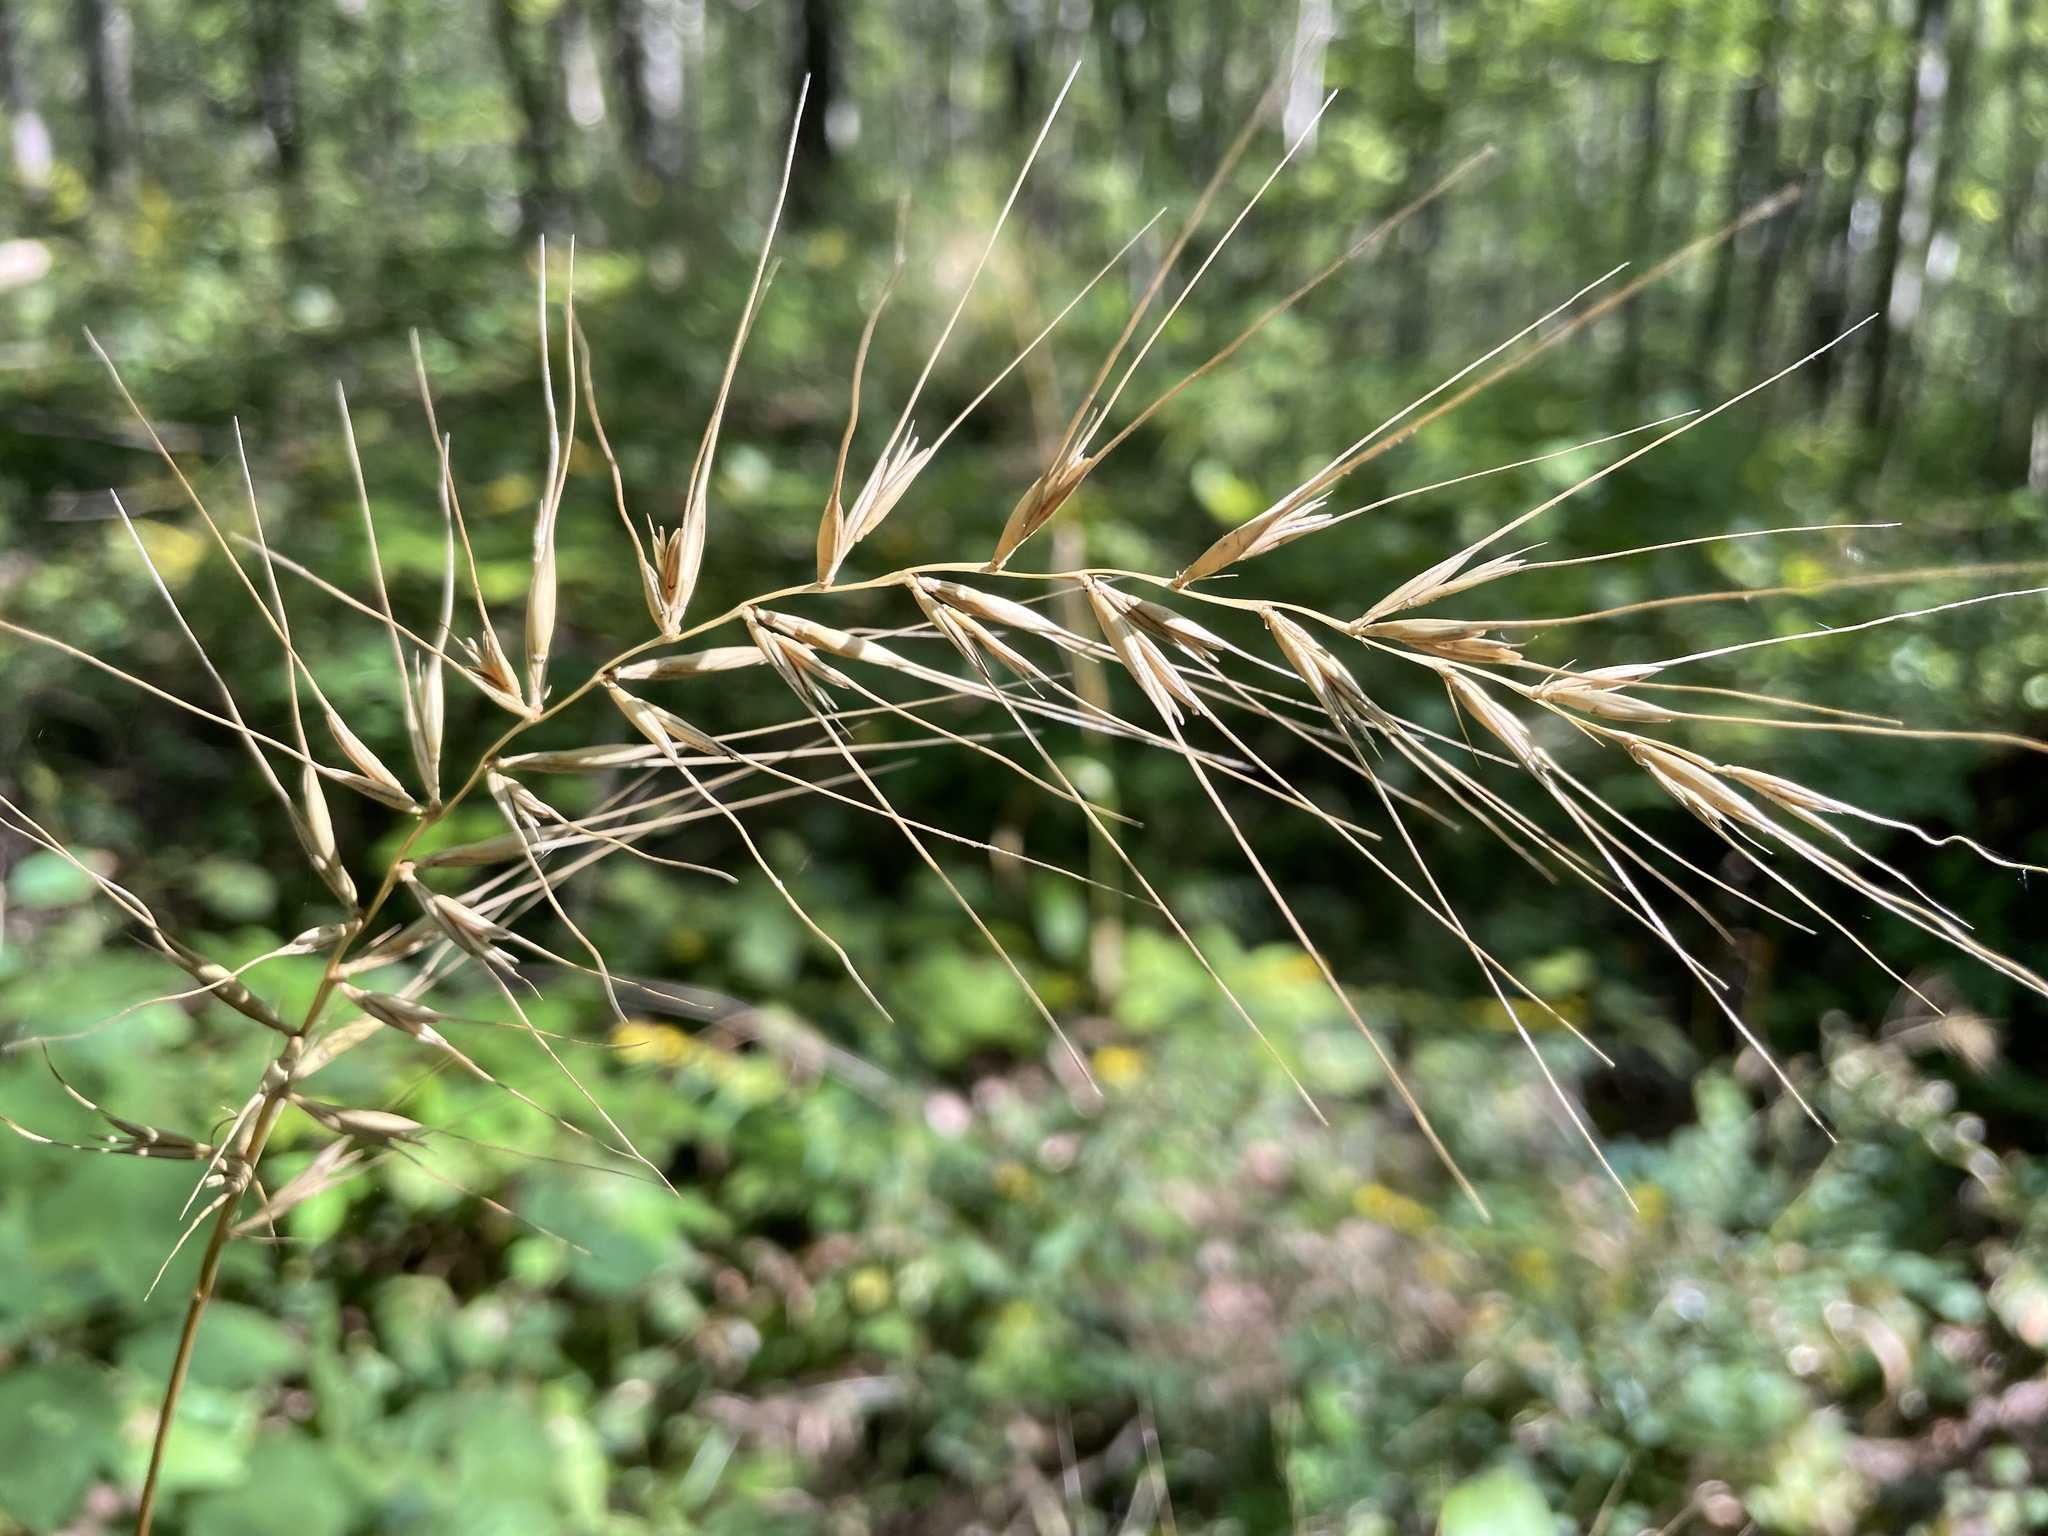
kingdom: Plantae
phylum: Tracheophyta
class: Liliopsida
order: Poales
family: Poaceae
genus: Elymus
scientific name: Elymus hystrix
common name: Bottlebrush grass
